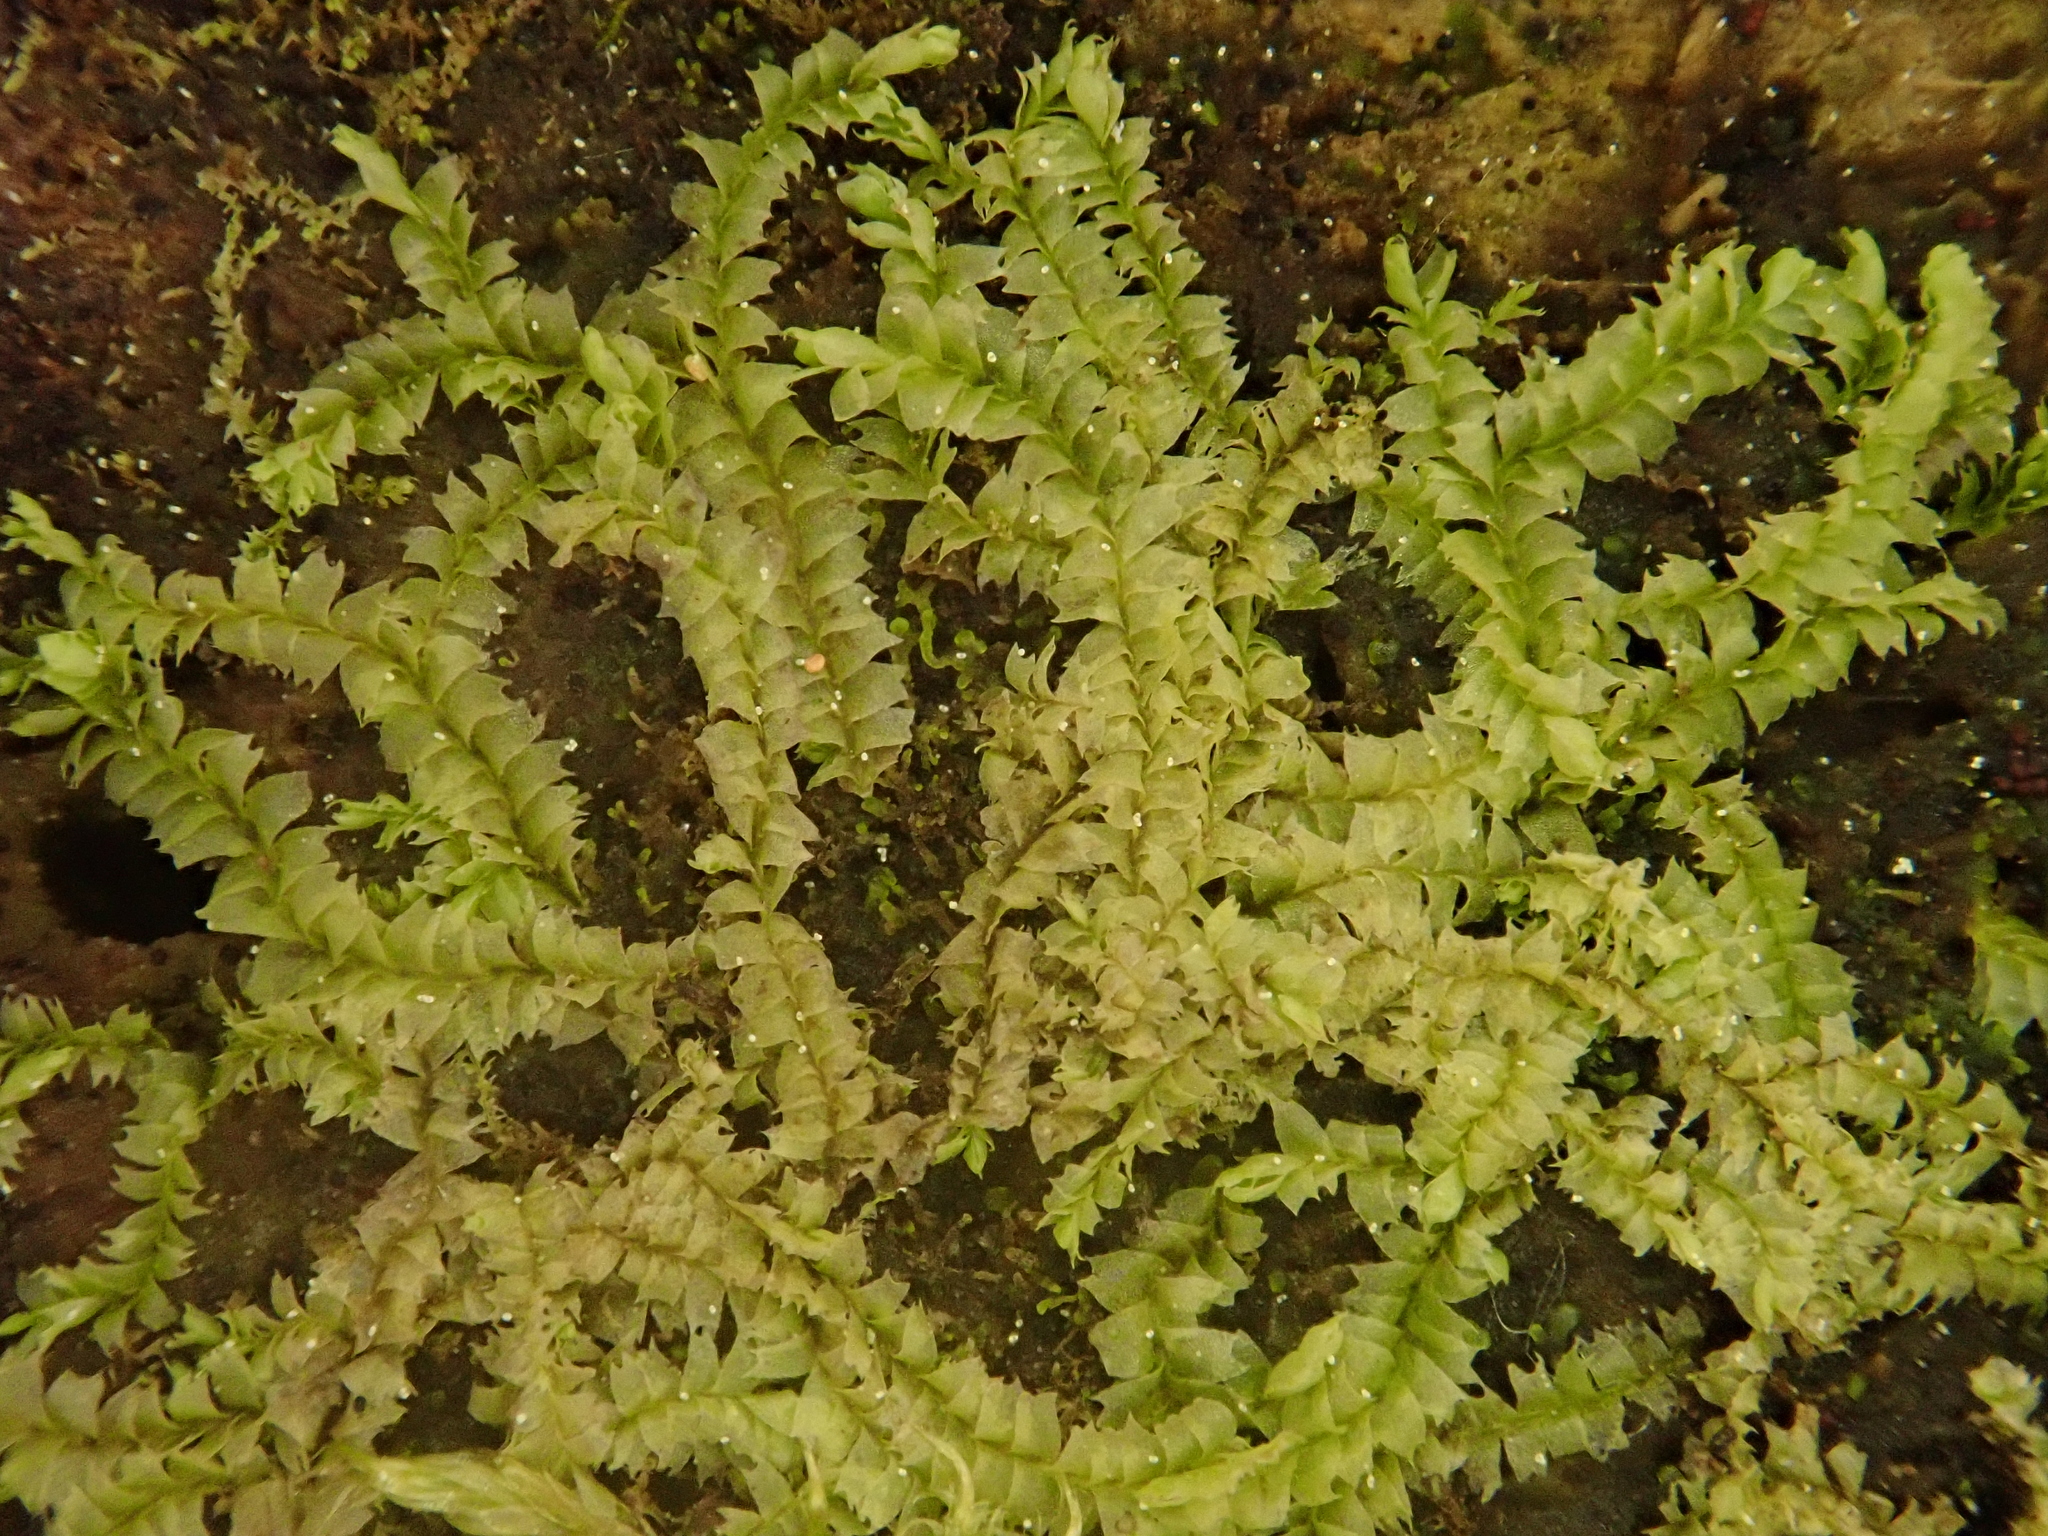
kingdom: Plantae
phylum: Marchantiophyta
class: Jungermanniopsida
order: Jungermanniales
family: Lophocoleaceae
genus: Lophocolea
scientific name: Lophocolea heterophylla
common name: Variable-leaved crestwort
